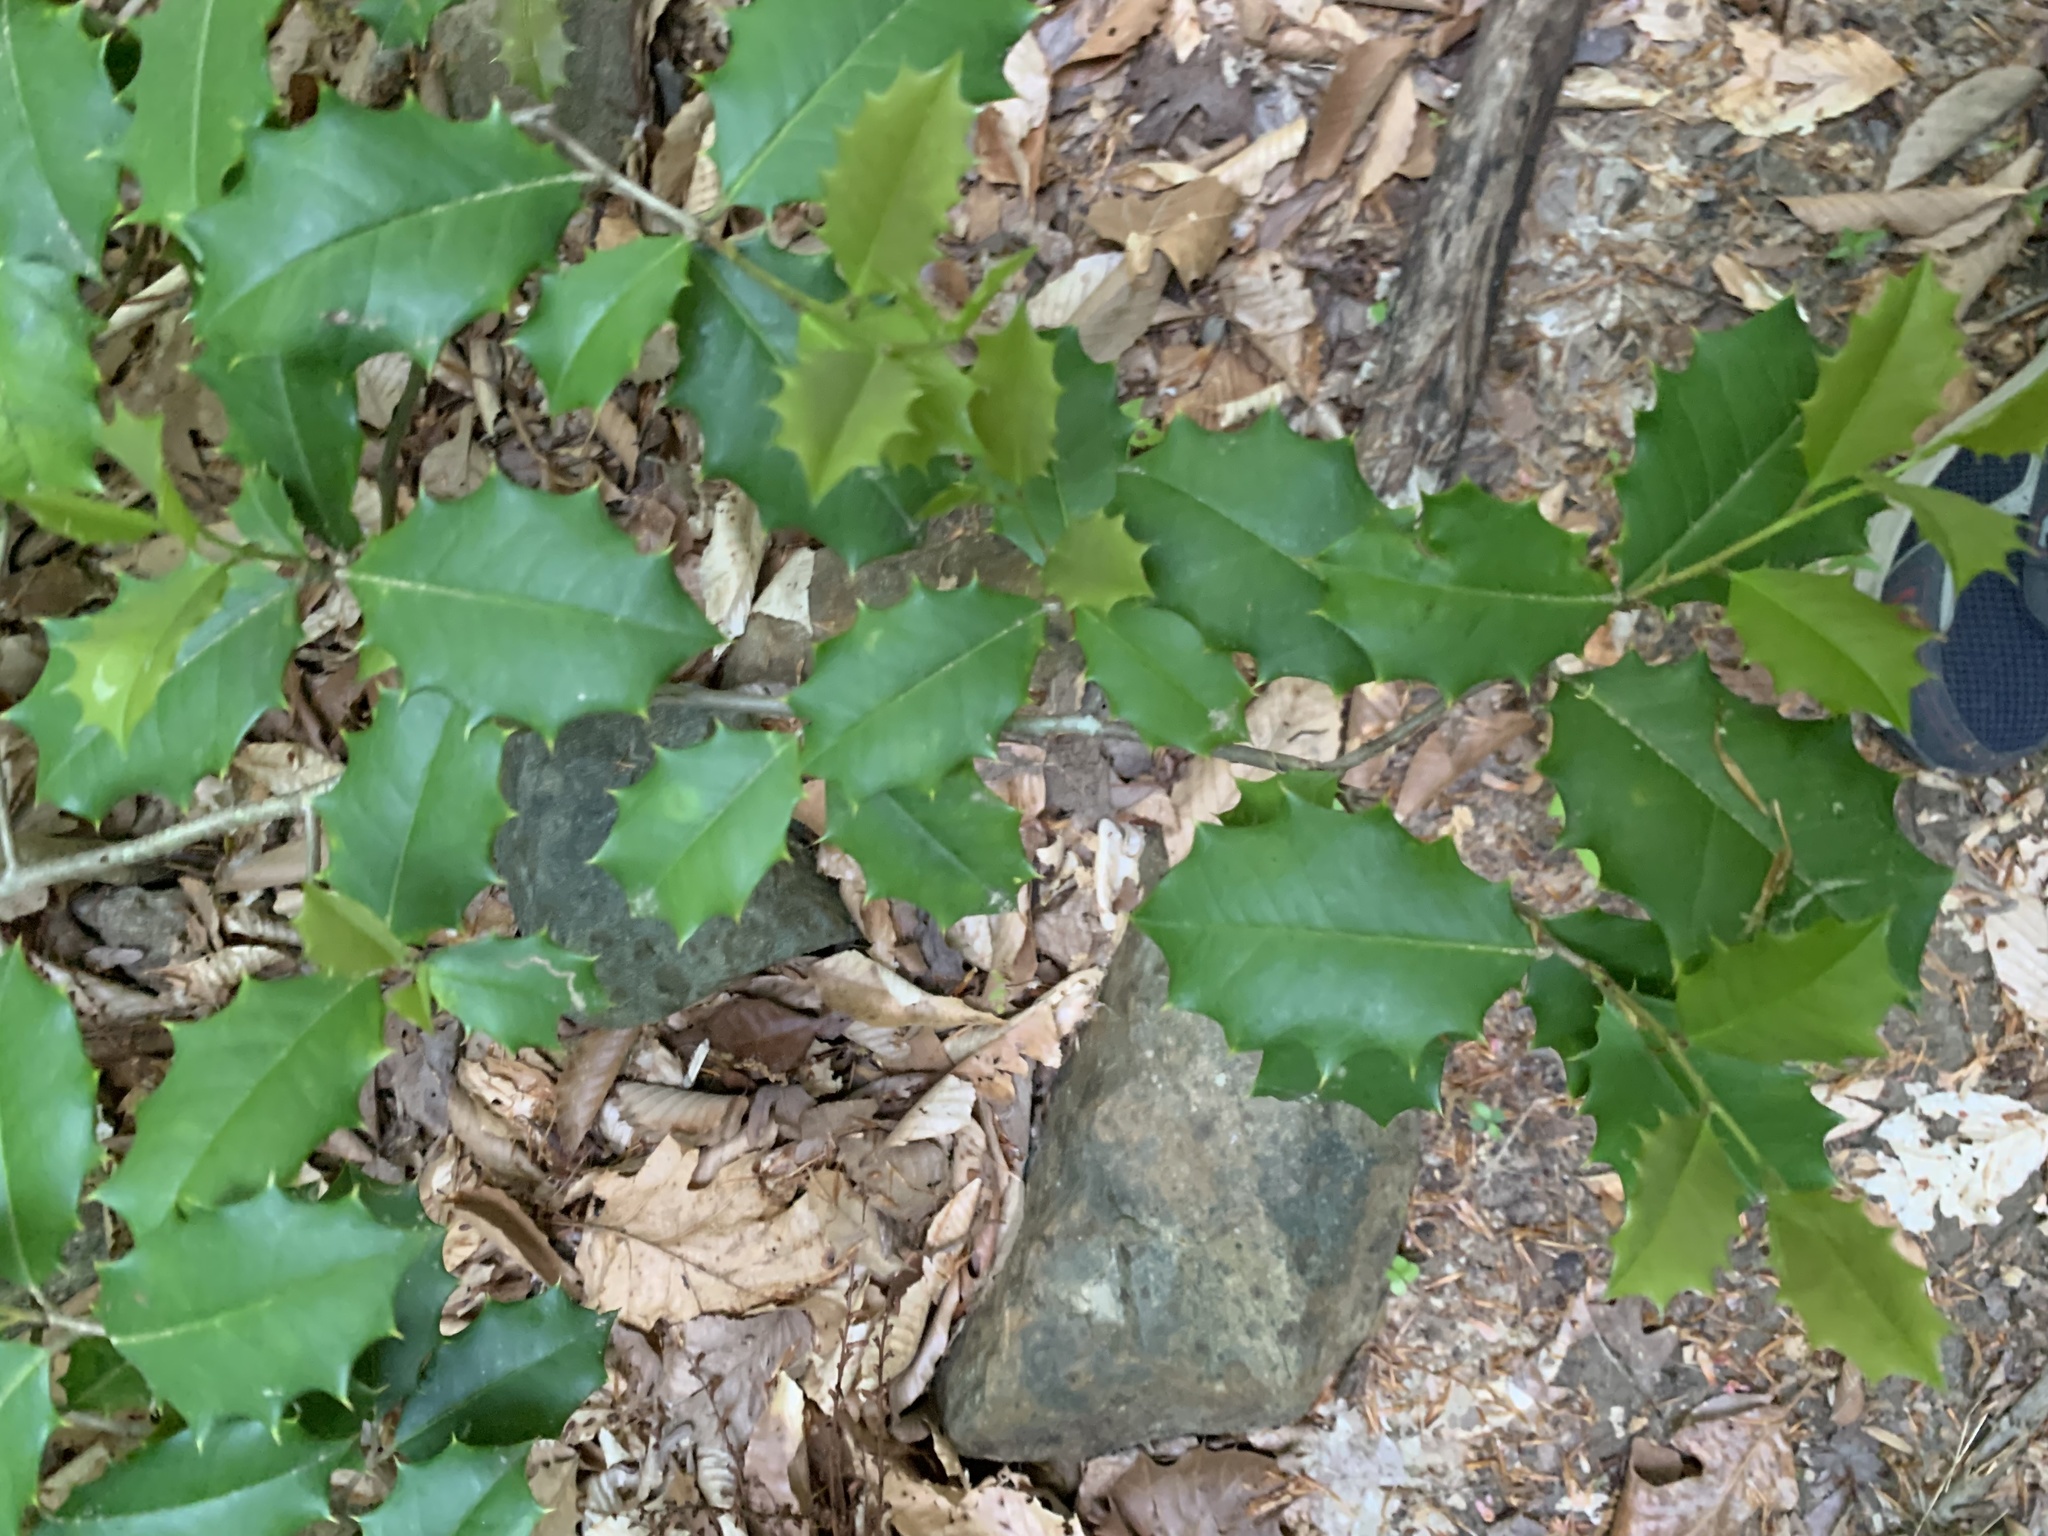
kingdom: Plantae
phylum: Tracheophyta
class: Magnoliopsida
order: Aquifoliales
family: Aquifoliaceae
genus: Ilex
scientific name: Ilex opaca
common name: American holly
